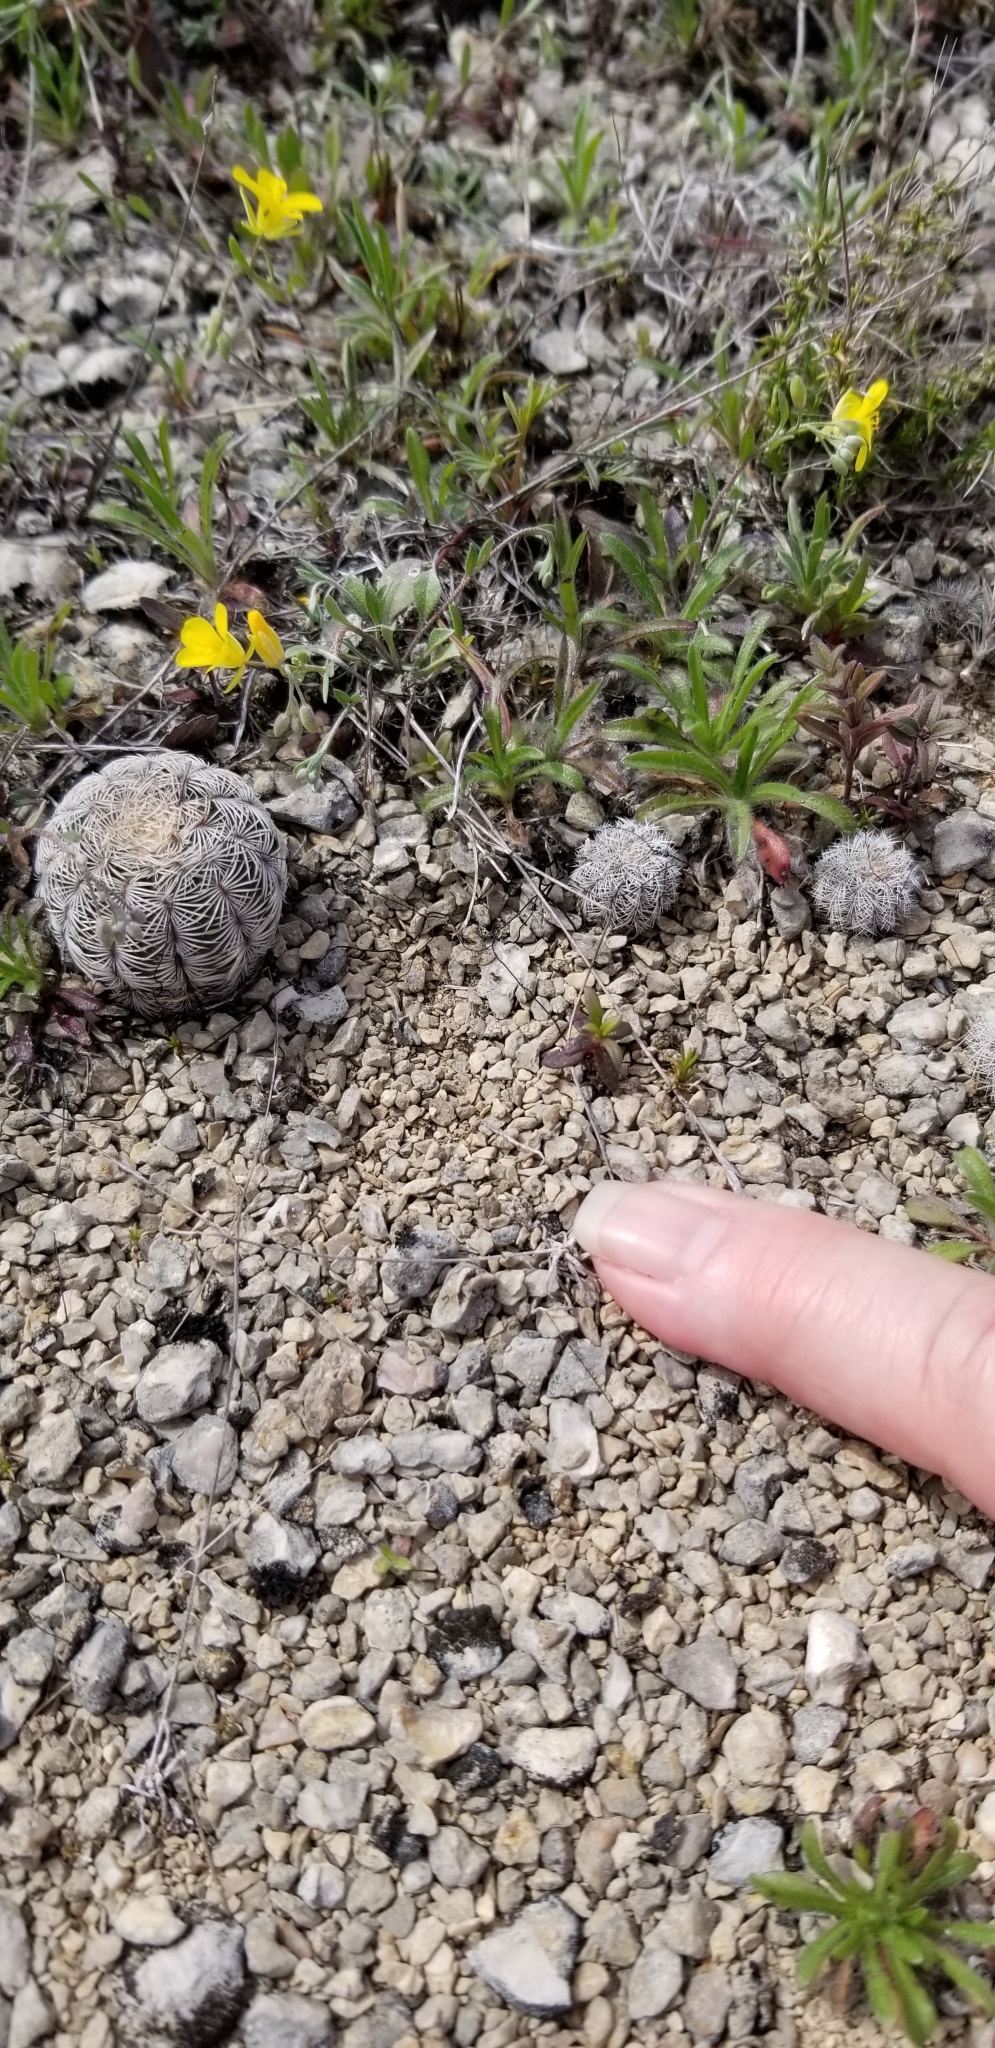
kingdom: Plantae
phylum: Tracheophyta
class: Magnoliopsida
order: Caryophyllales
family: Cactaceae
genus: Echinocereus
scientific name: Echinocereus reichenbachii
